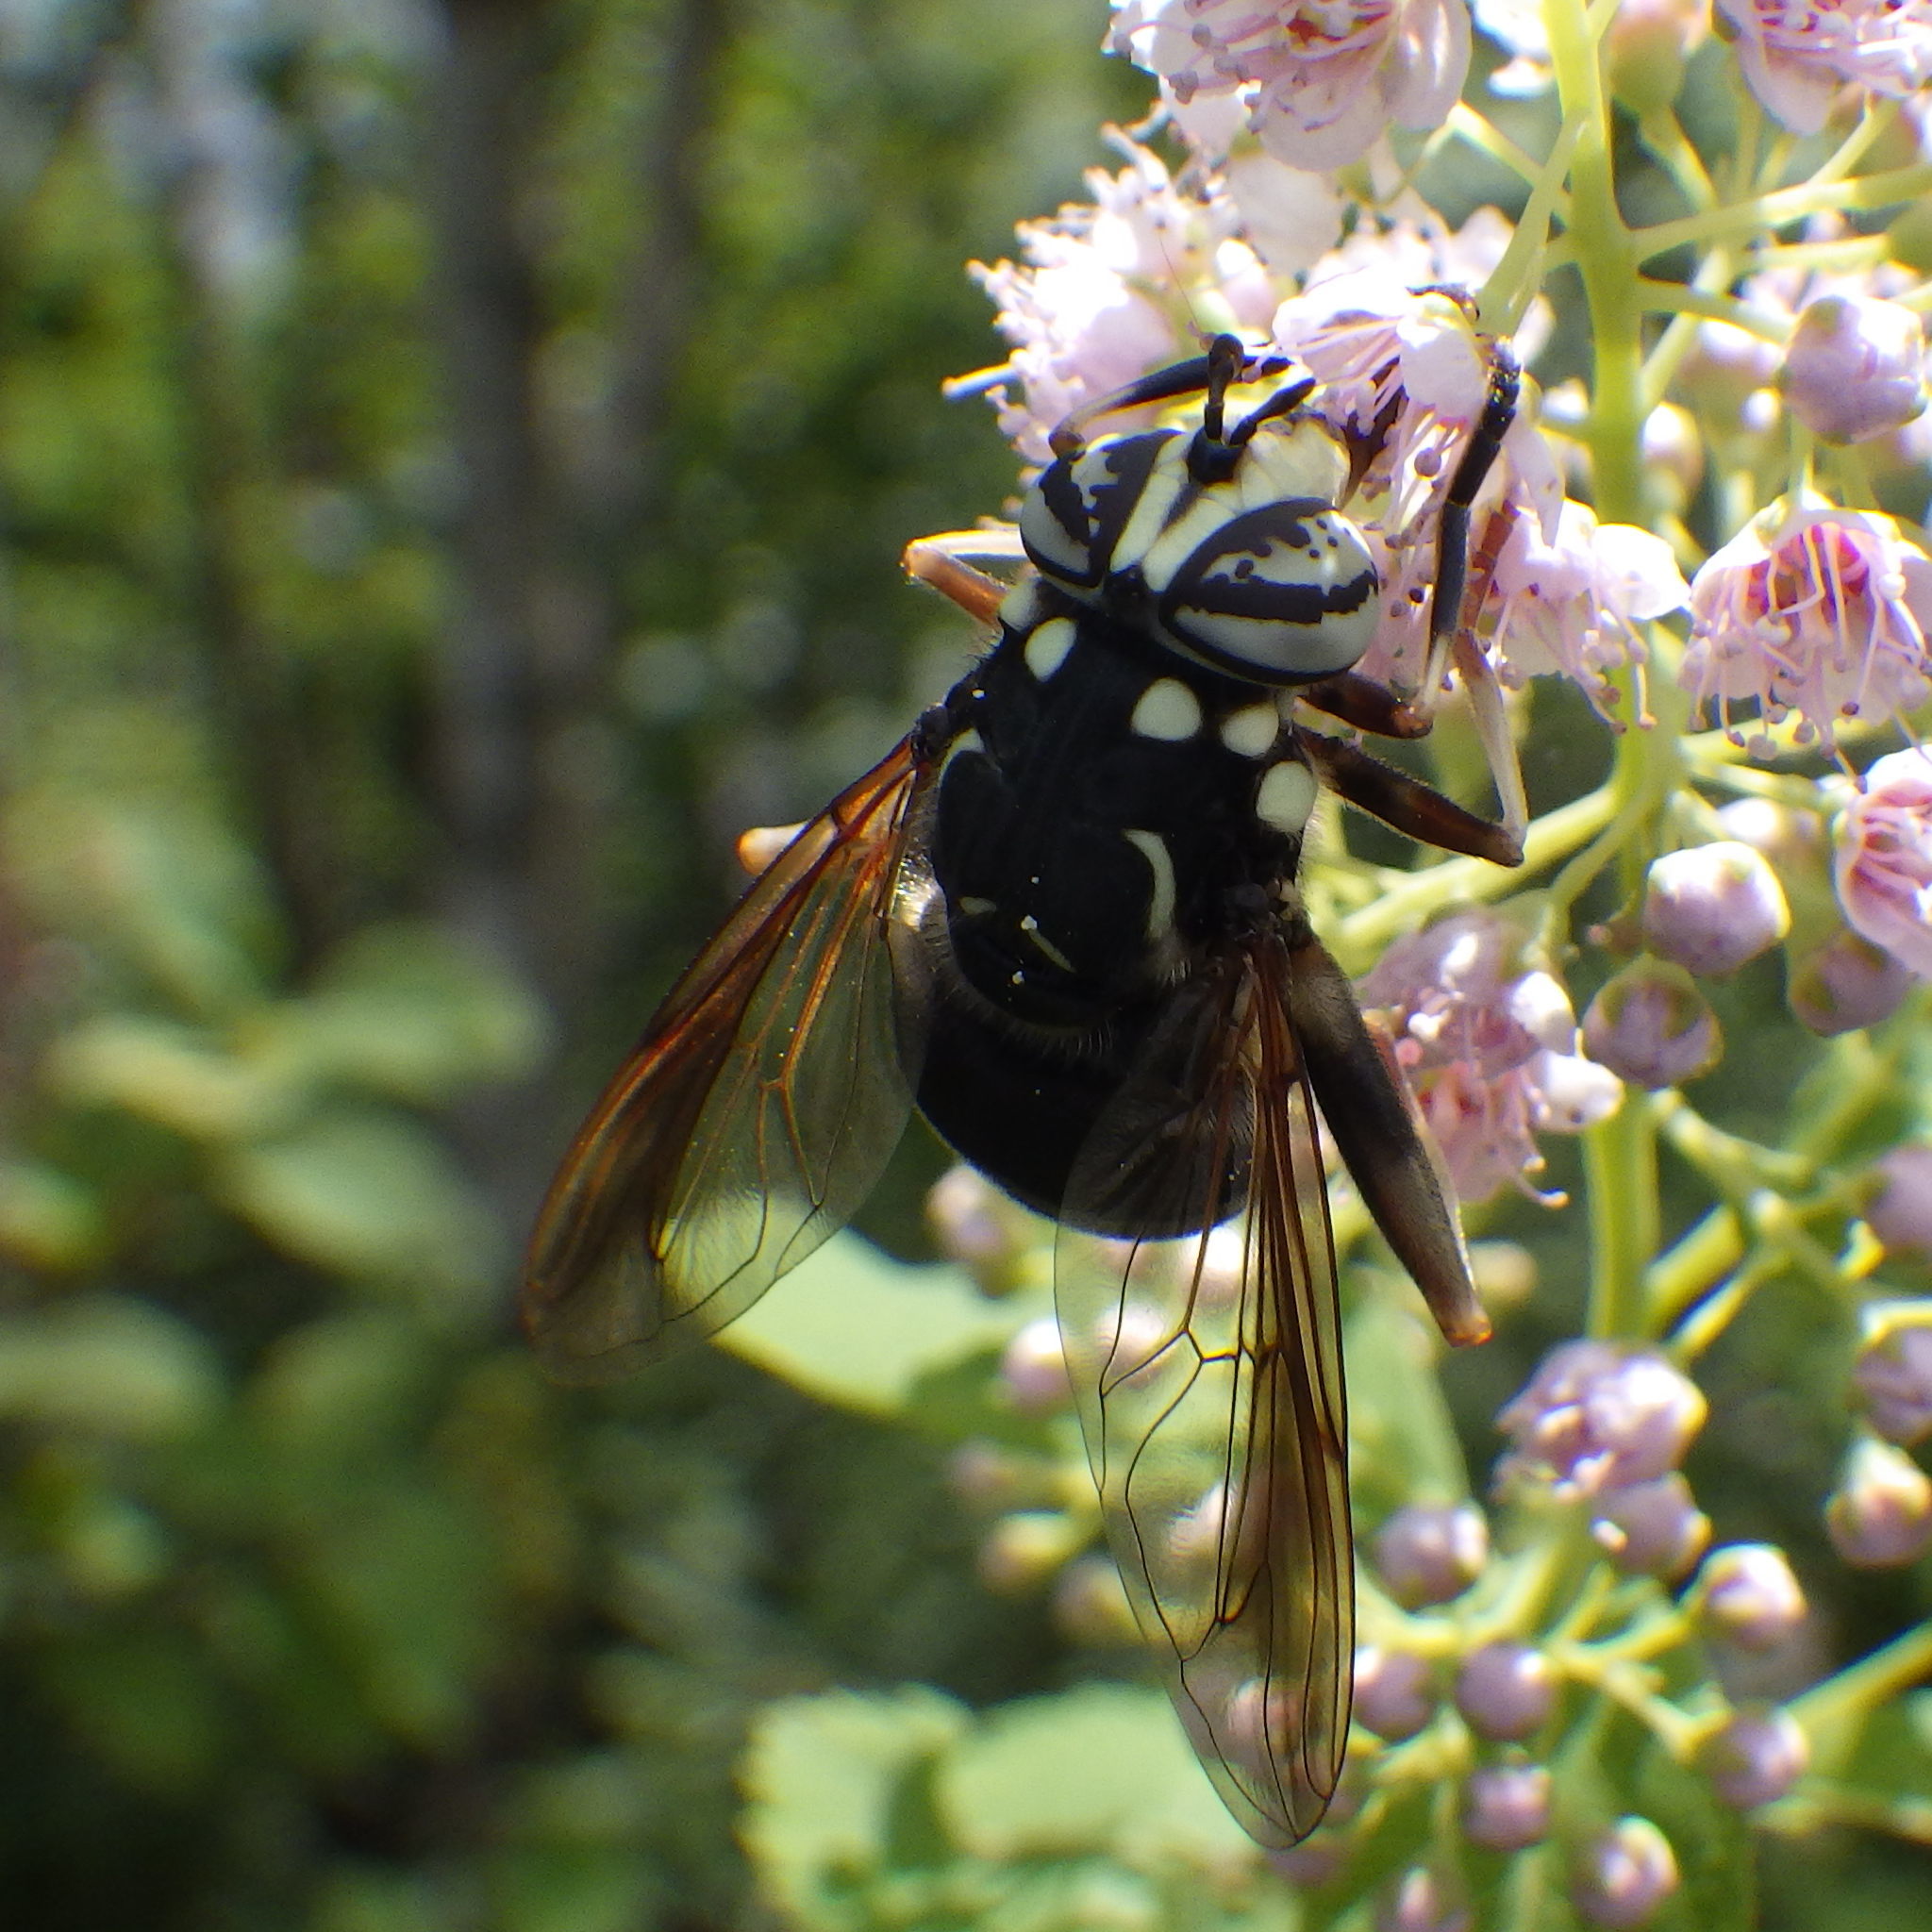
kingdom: Animalia
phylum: Arthropoda
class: Insecta
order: Diptera
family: Syrphidae
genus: Spilomyia
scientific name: Spilomyia fusca
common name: Bald-faced hornet fly
